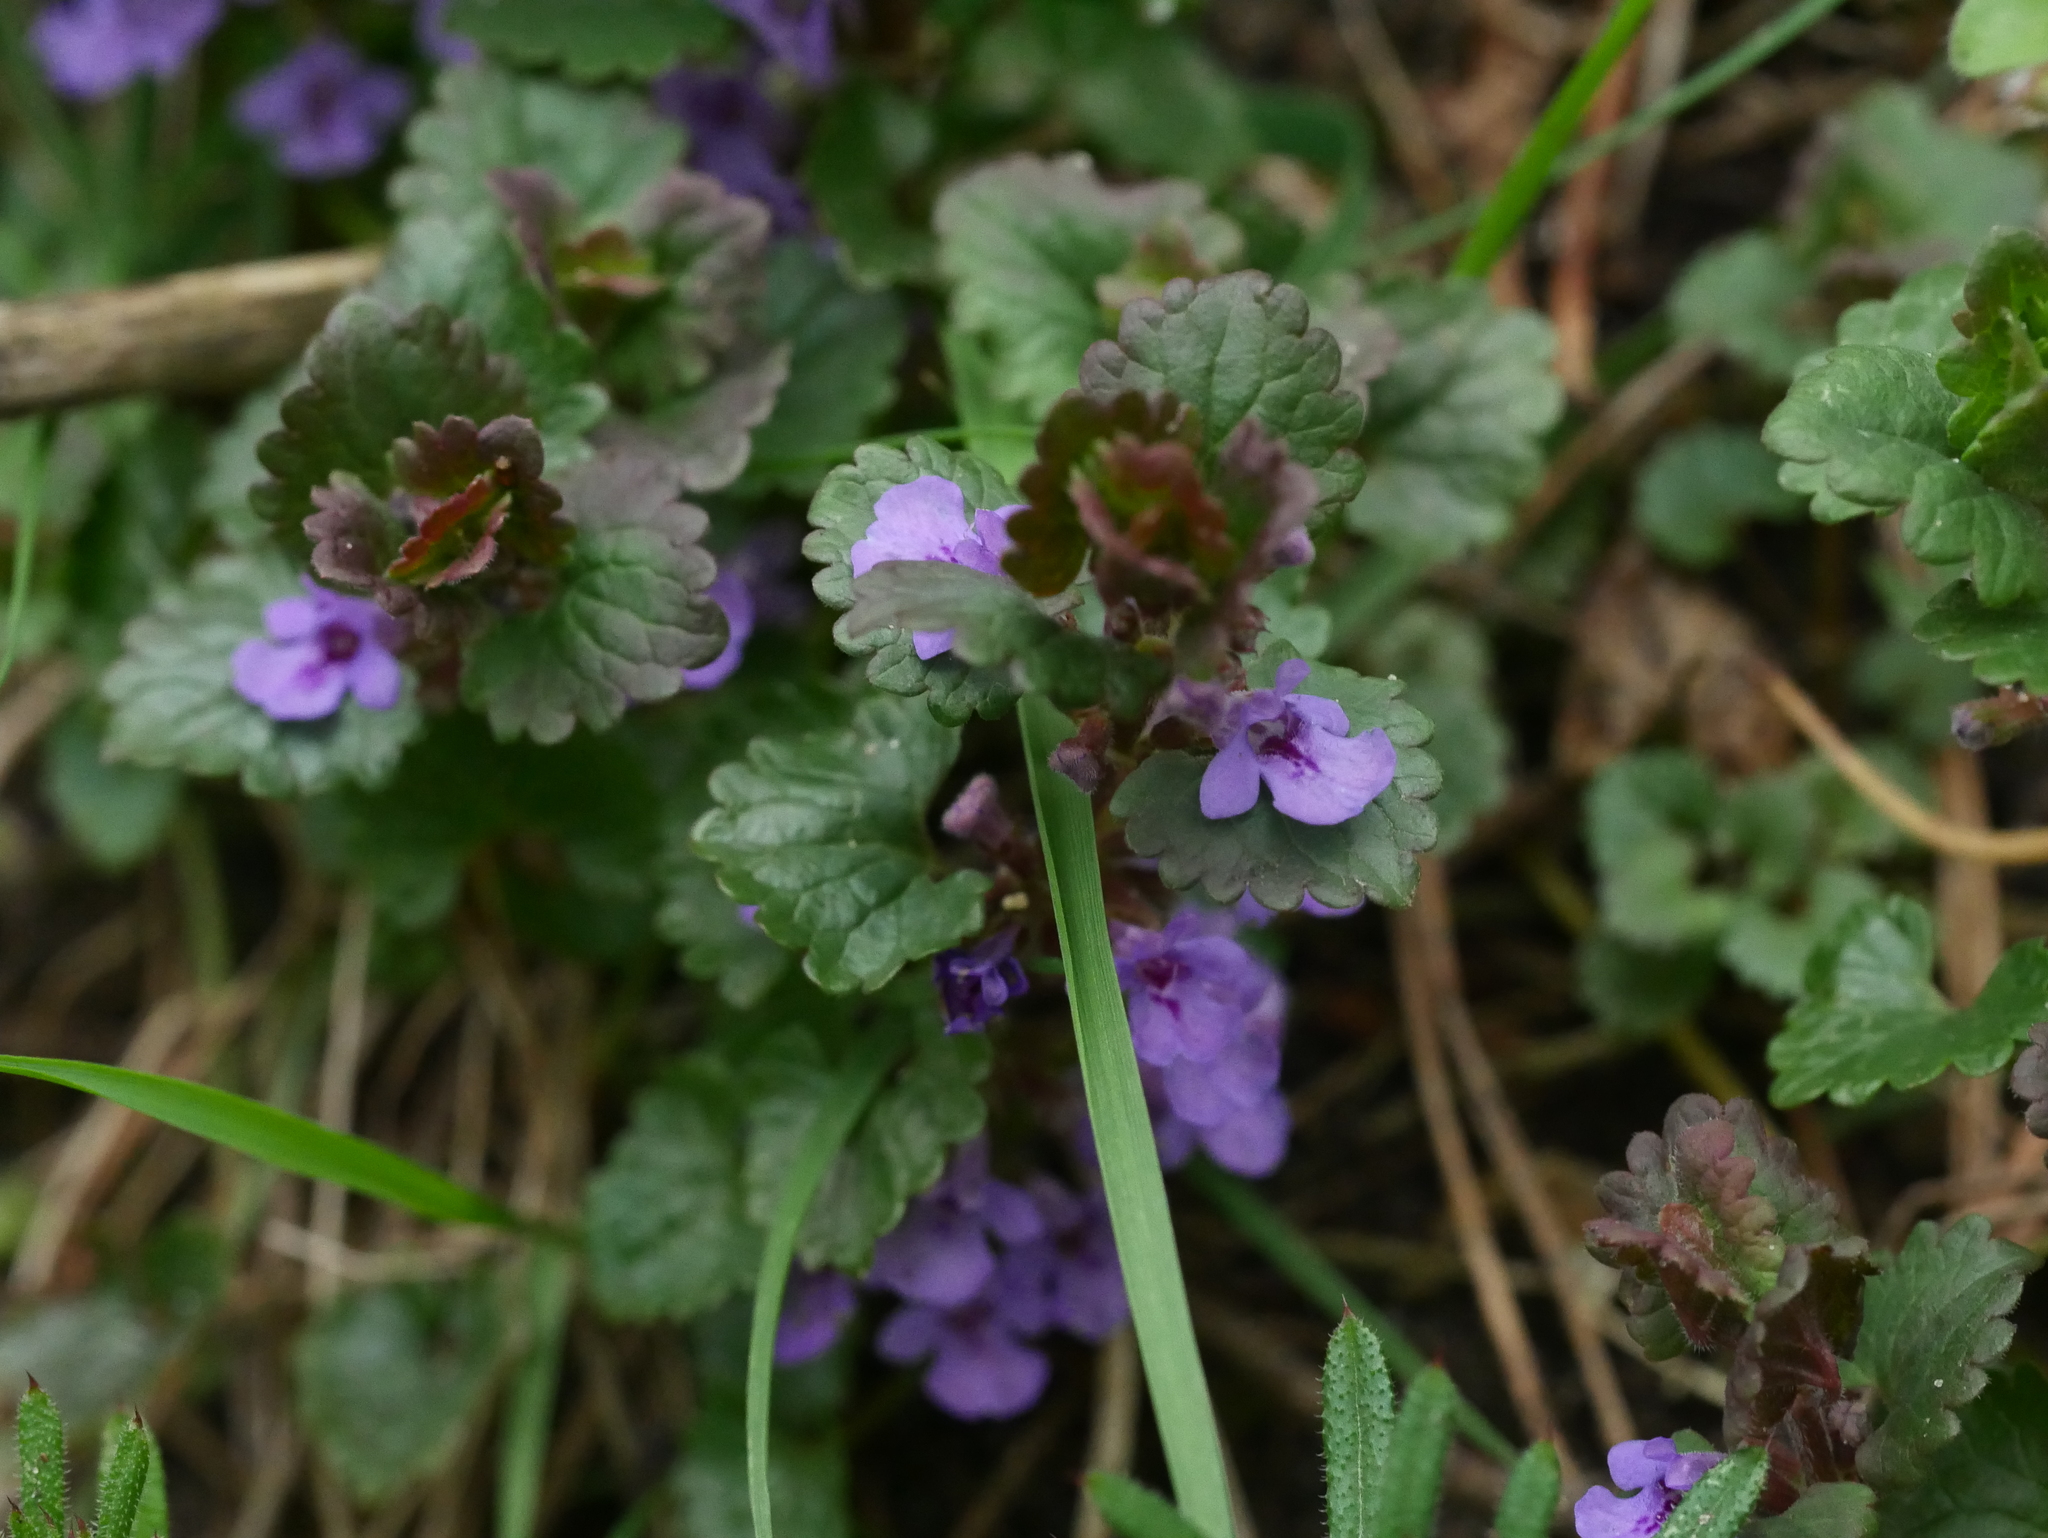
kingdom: Plantae
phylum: Tracheophyta
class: Magnoliopsida
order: Lamiales
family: Lamiaceae
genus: Glechoma
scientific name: Glechoma hederacea
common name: Ground ivy
